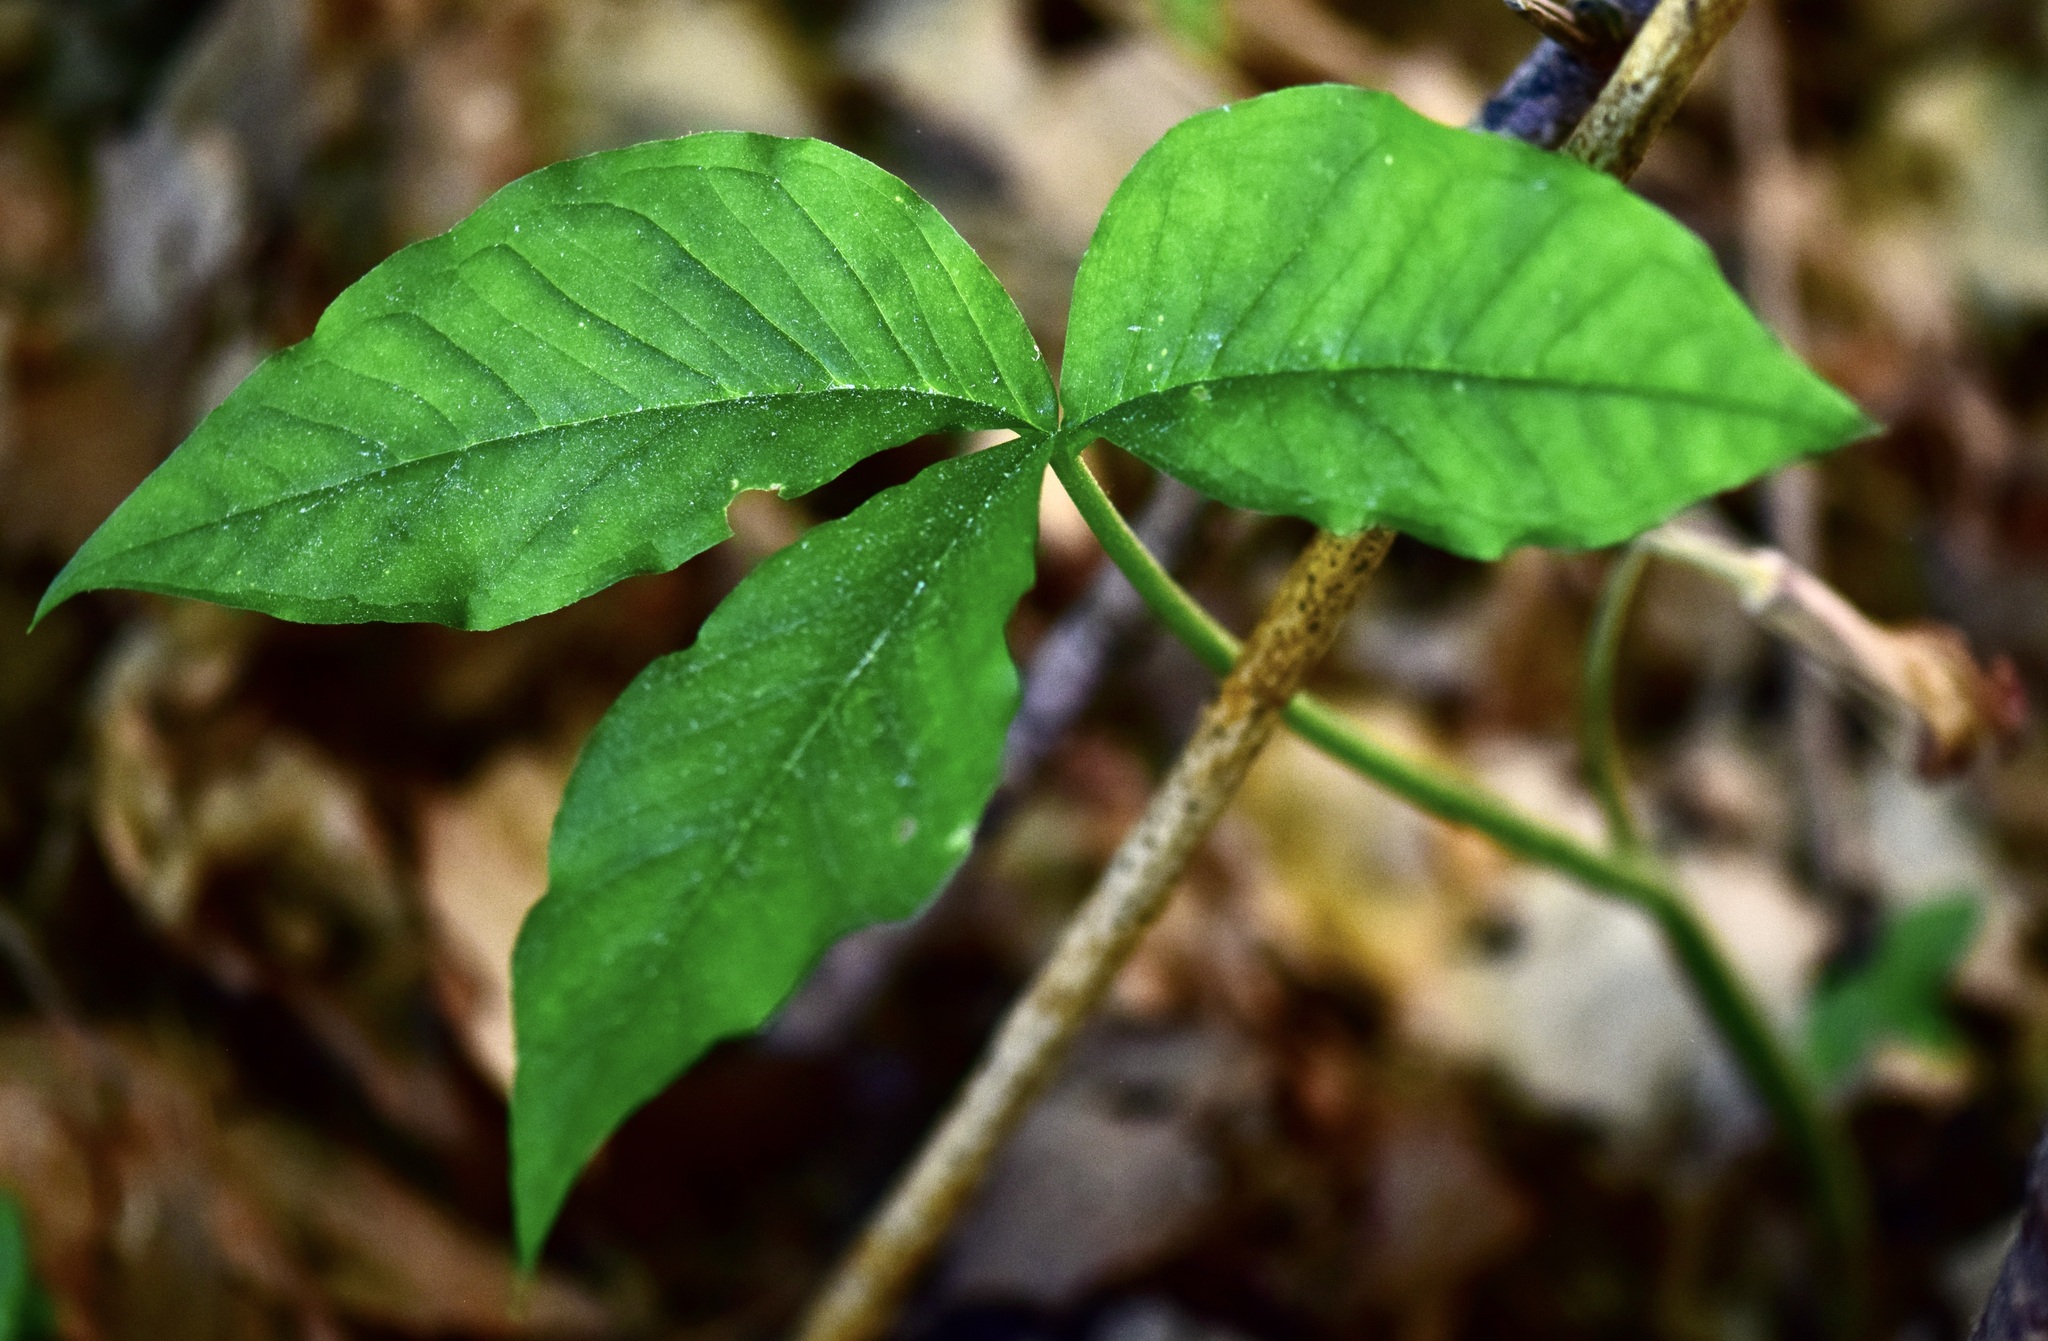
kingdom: Plantae
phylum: Tracheophyta
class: Liliopsida
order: Alismatales
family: Araceae
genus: Arisaema
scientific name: Arisaema triphyllum
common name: Jack-in-the-pulpit
